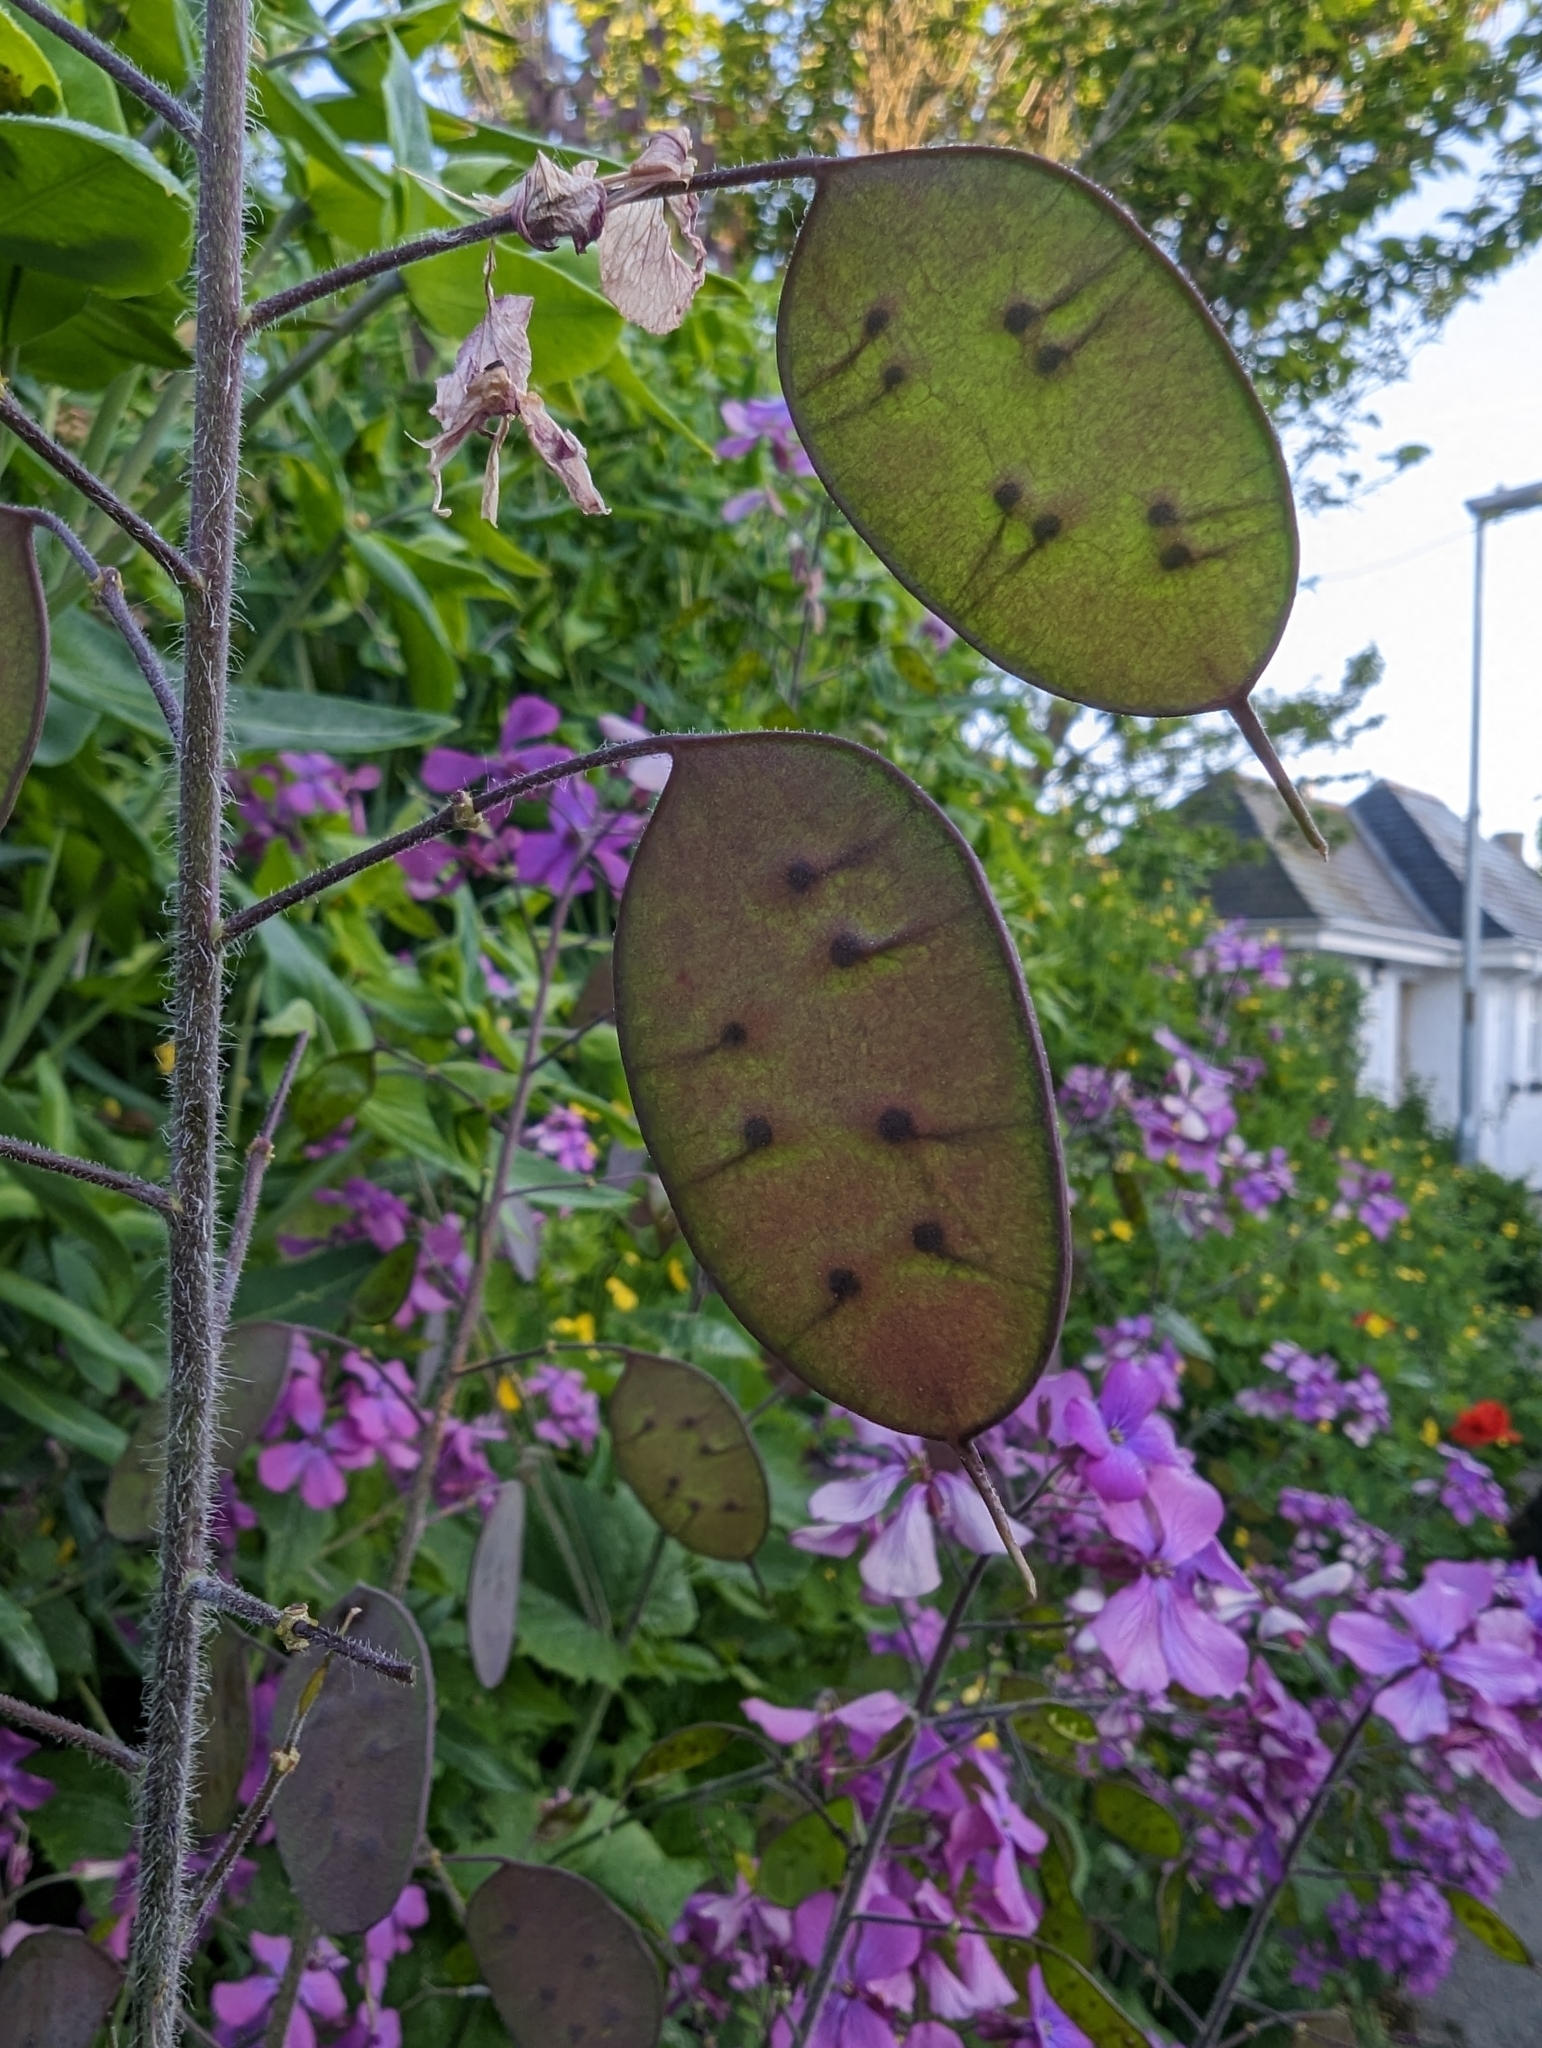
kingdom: Plantae
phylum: Tracheophyta
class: Magnoliopsida
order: Brassicales
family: Brassicaceae
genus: Lunaria
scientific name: Lunaria annua
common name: Honesty
